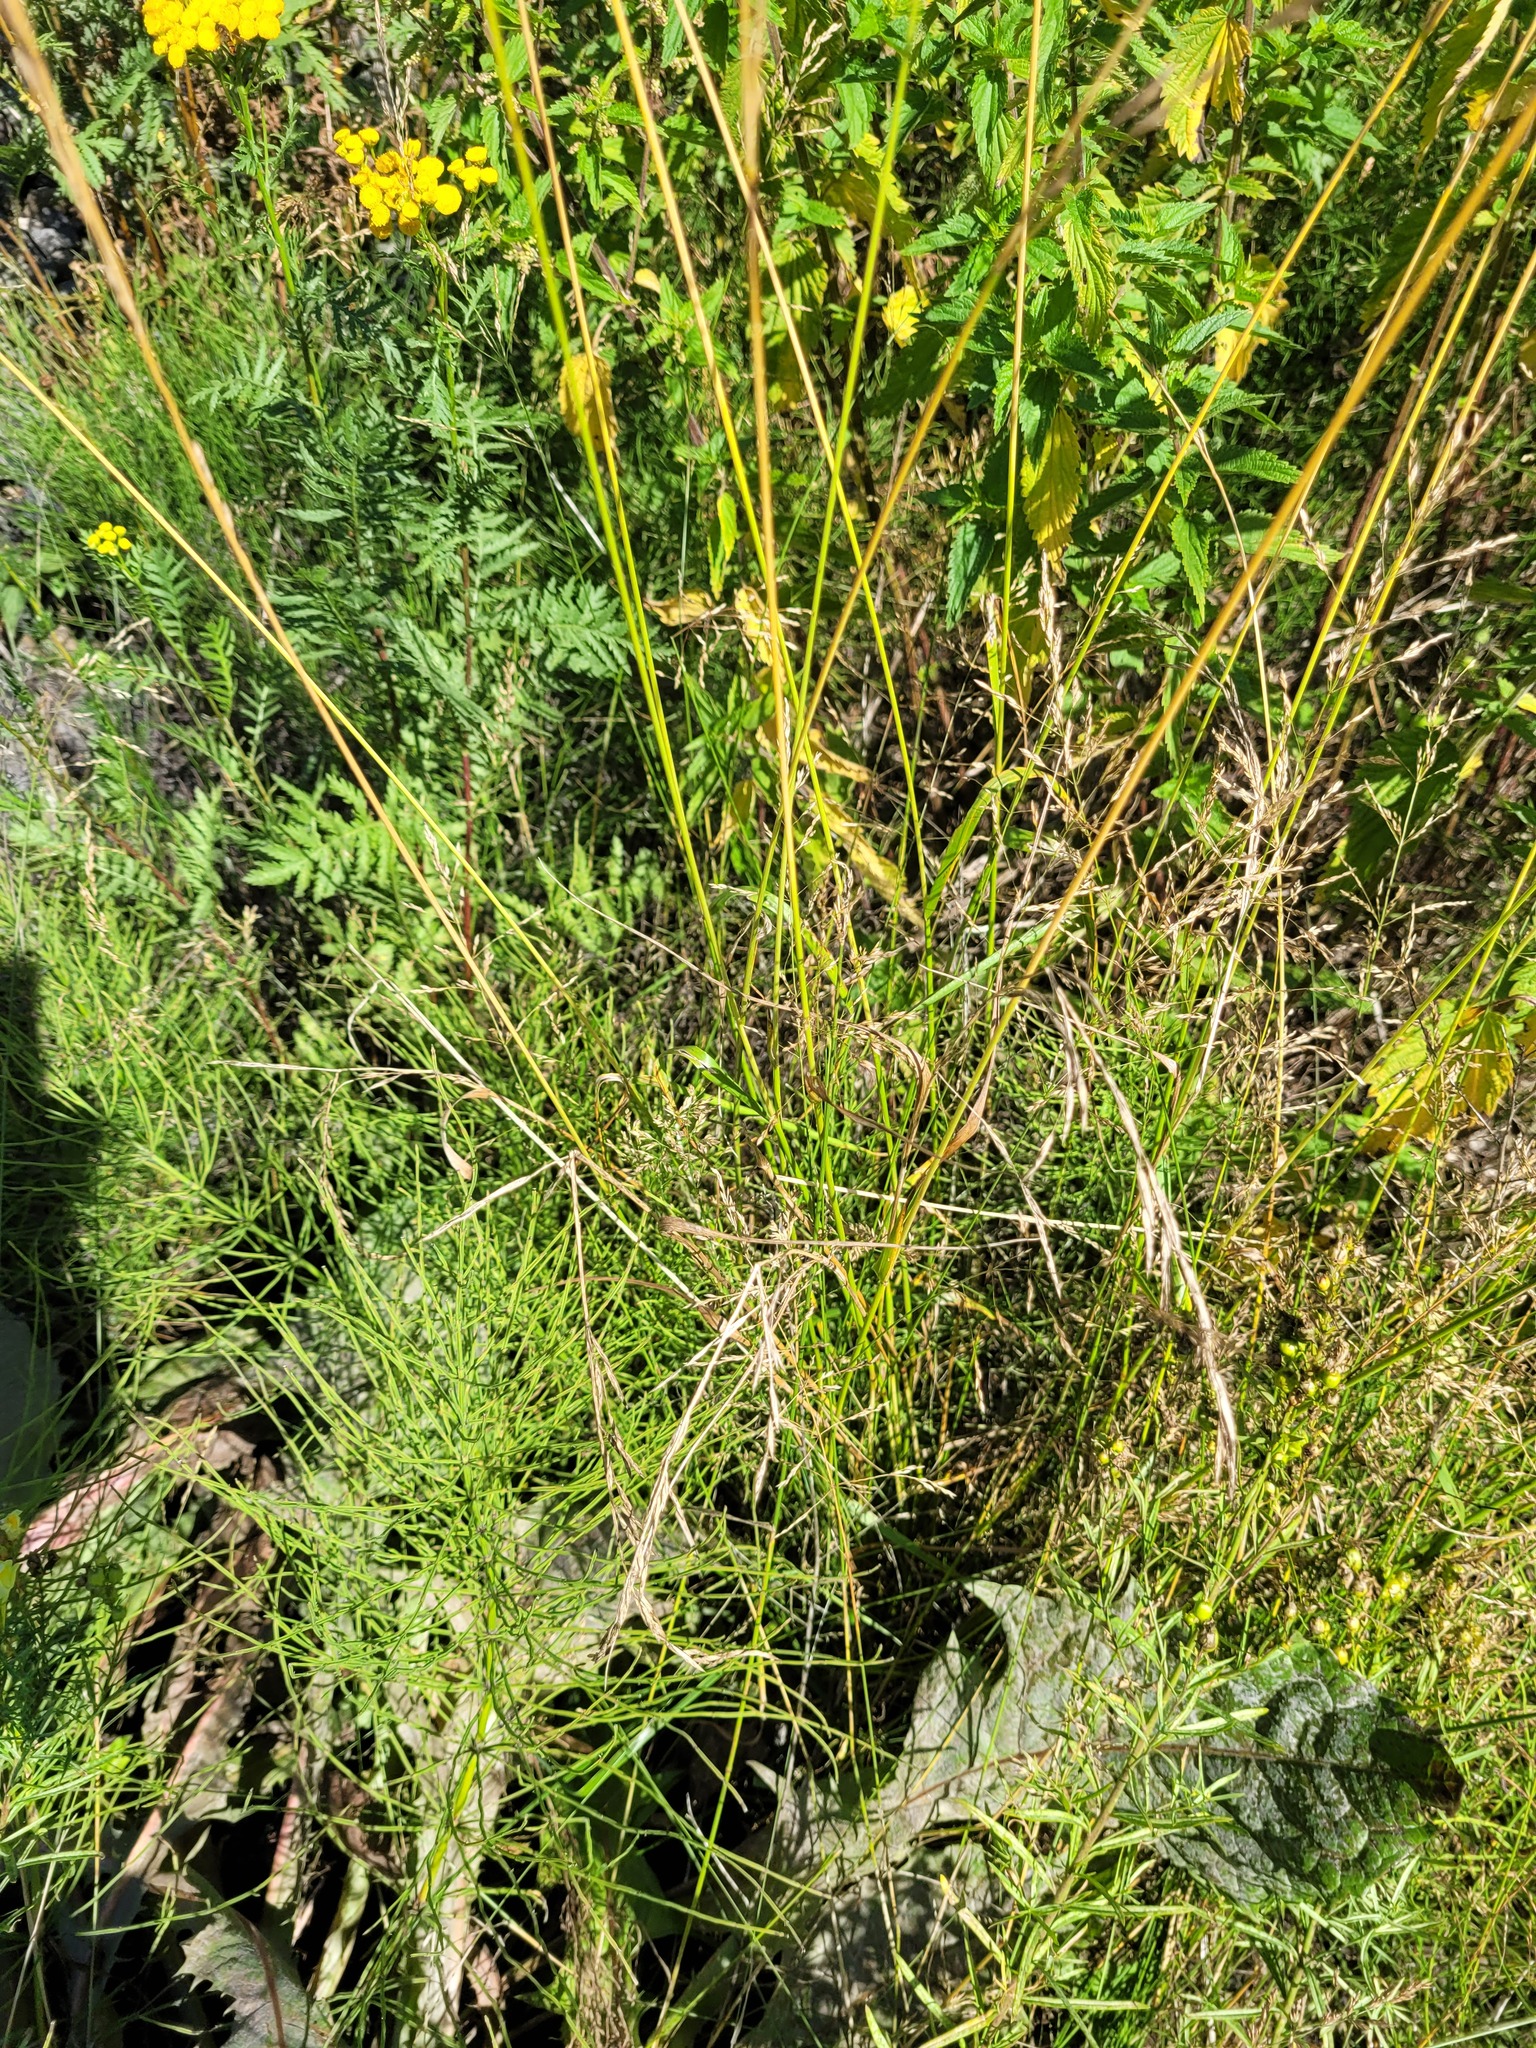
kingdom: Plantae
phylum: Tracheophyta
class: Liliopsida
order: Poales
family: Poaceae
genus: Lolium
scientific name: Lolium pratense
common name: Dover grass
